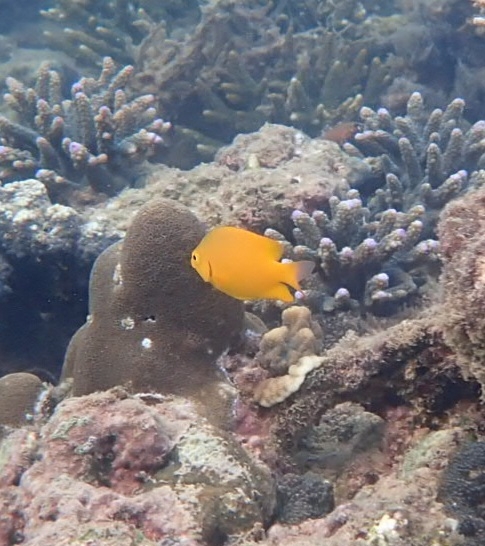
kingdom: Animalia
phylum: Chordata
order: Perciformes
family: Pomacentridae
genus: Pomacentrus
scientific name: Pomacentrus moluccensis
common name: Lemon damsel
